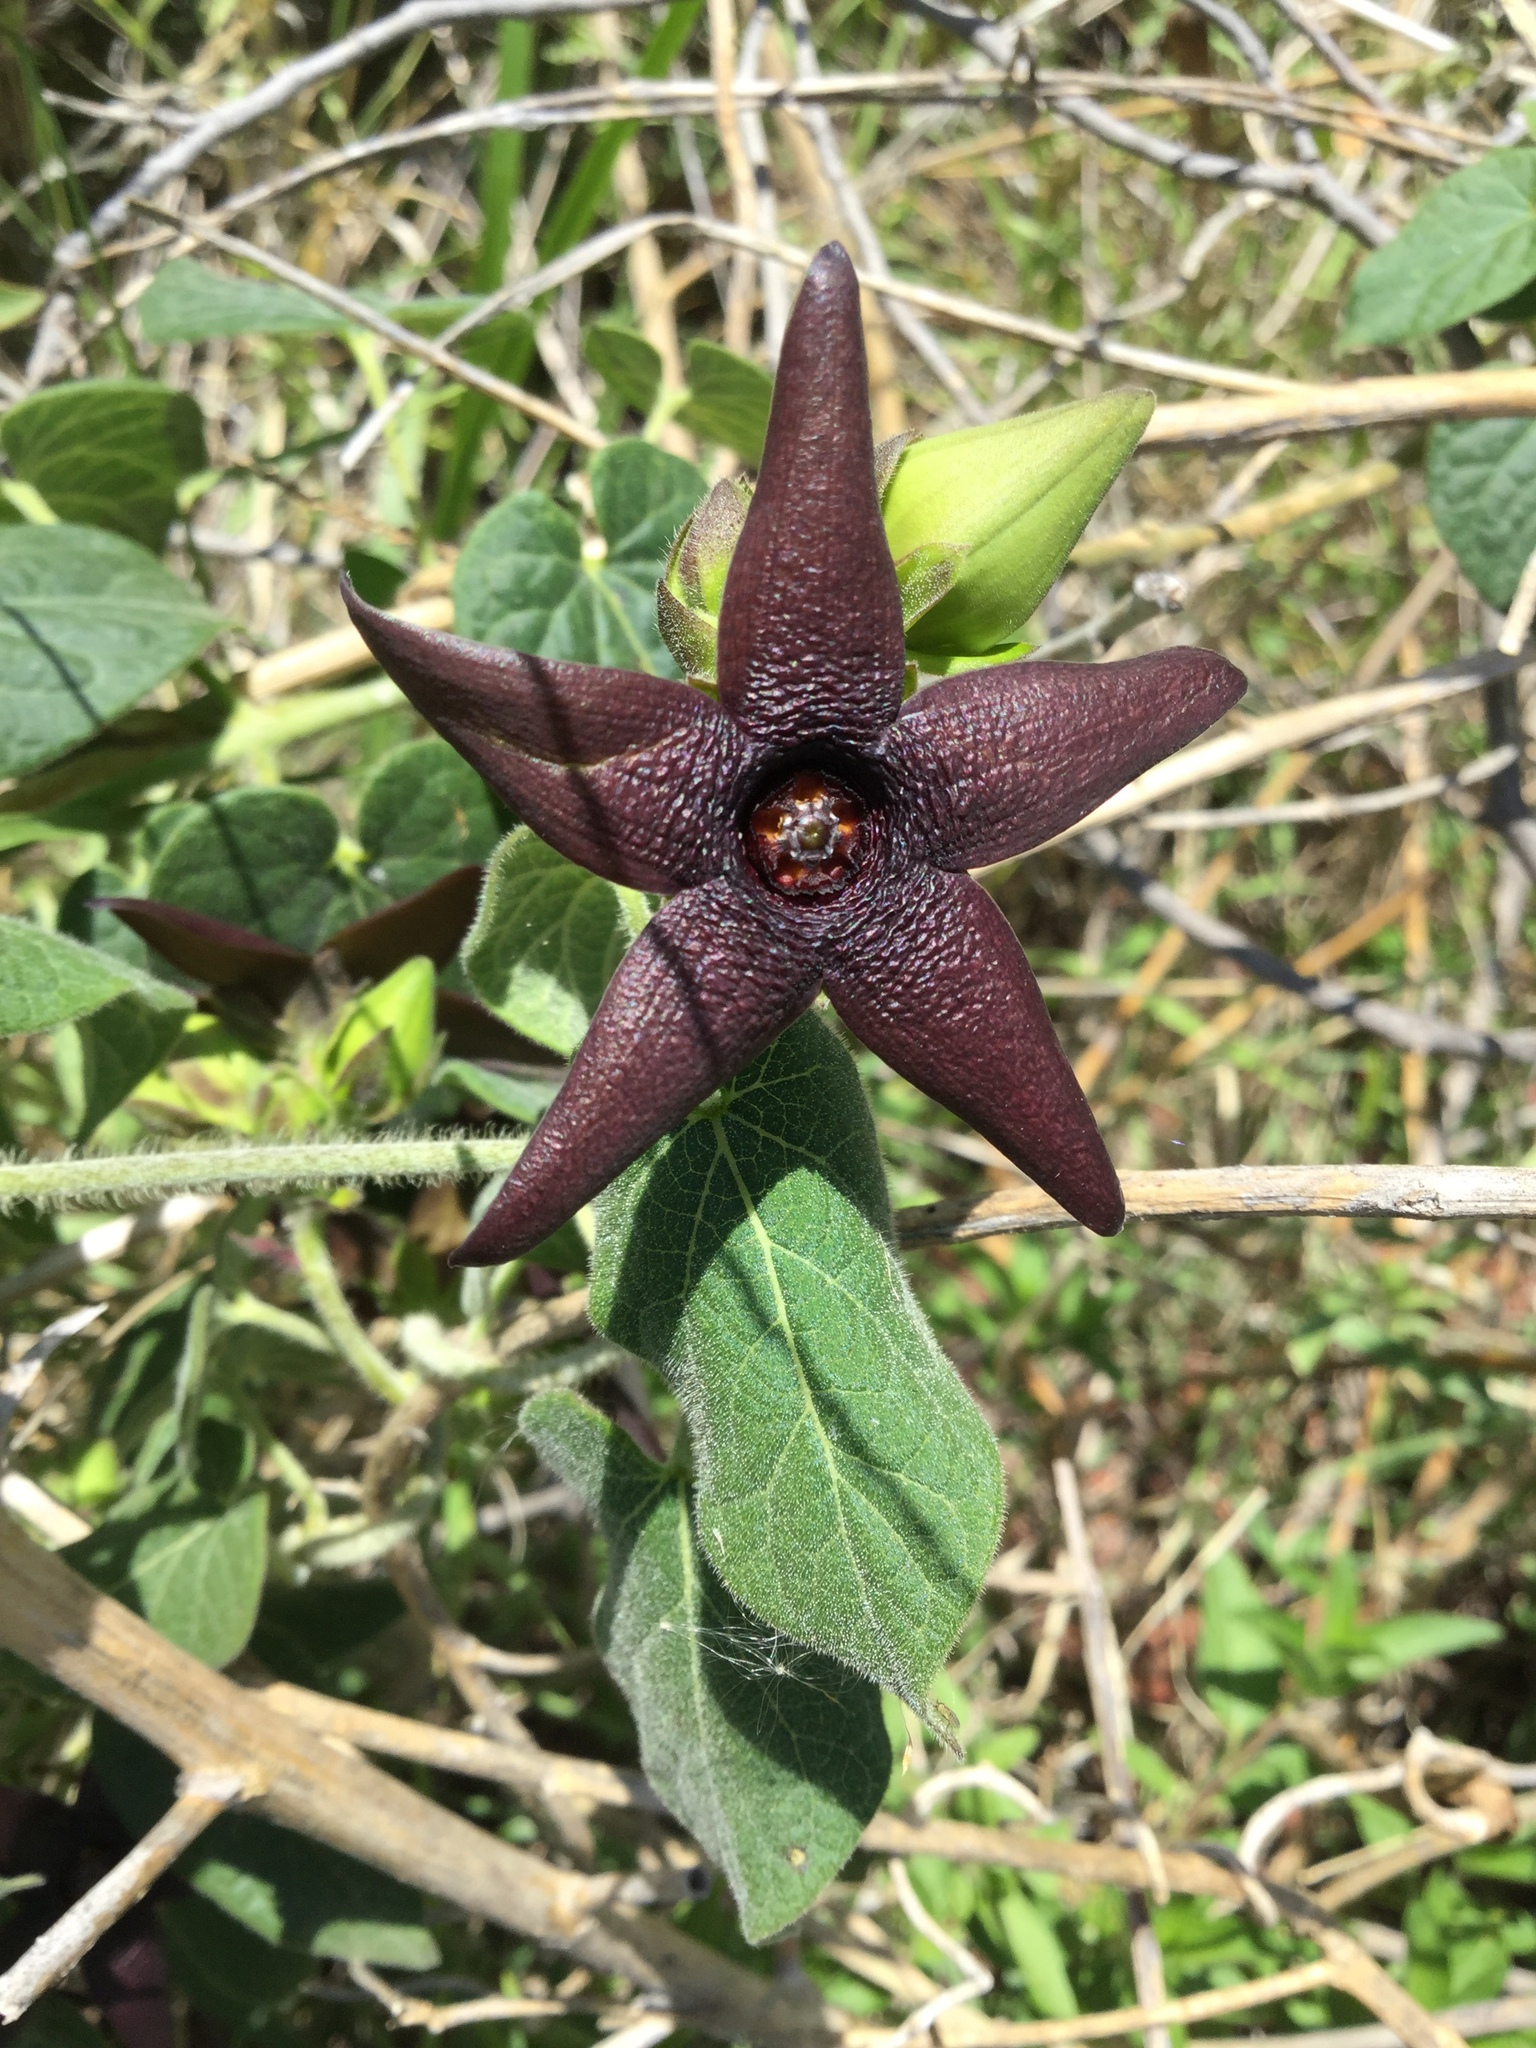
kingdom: Plantae
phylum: Tracheophyta
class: Magnoliopsida
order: Gentianales
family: Apocynaceae
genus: Matelea
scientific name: Matelea pilosa
